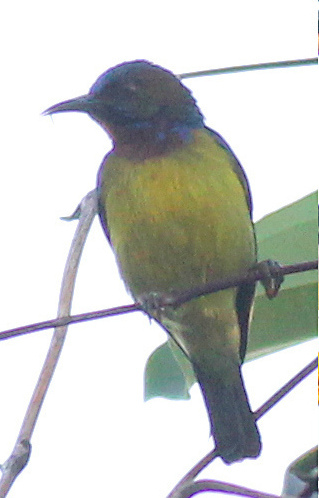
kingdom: Animalia
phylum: Chordata
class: Aves
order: Passeriformes
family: Nectariniidae
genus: Anthreptes
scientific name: Anthreptes malacensis
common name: Brown-throated sunbird
